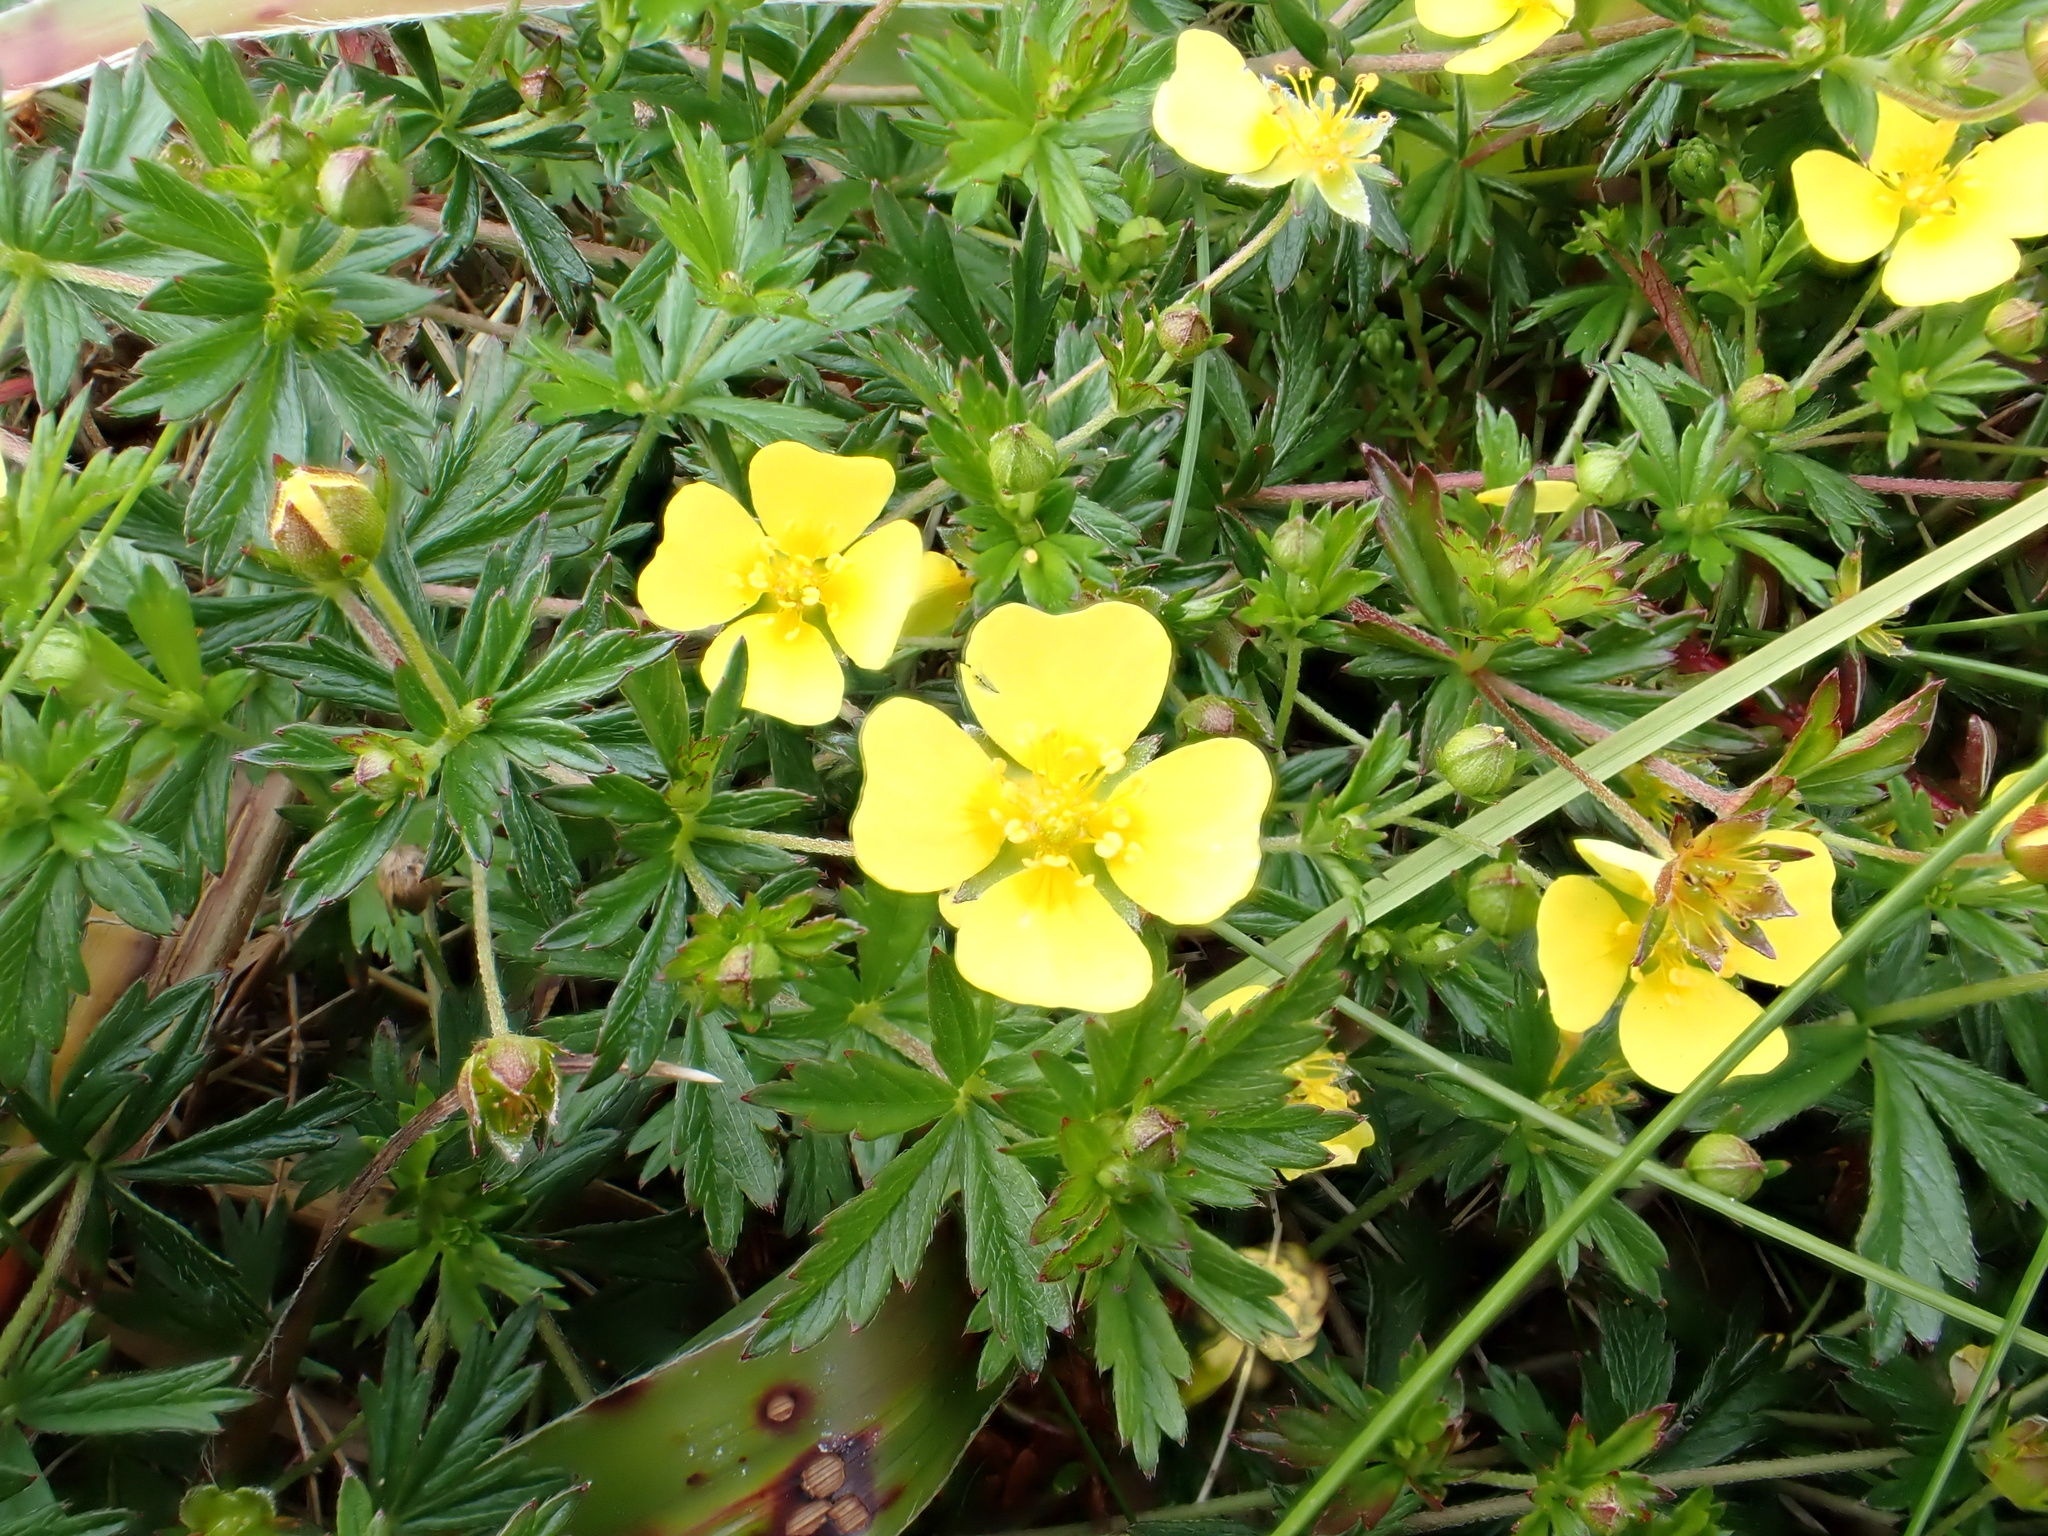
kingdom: Plantae
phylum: Tracheophyta
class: Magnoliopsida
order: Rosales
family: Rosaceae
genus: Potentilla
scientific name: Potentilla erecta
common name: Tormentil
